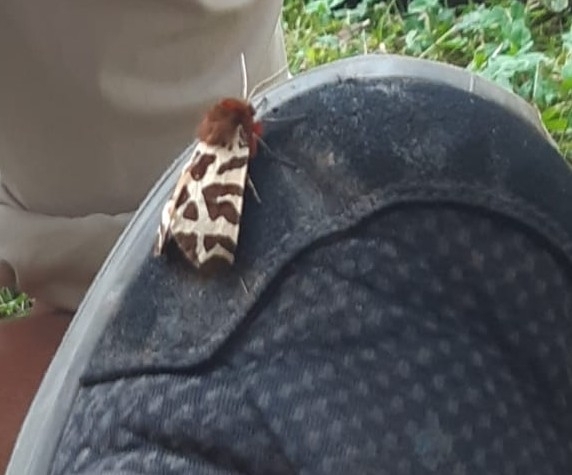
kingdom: Animalia
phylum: Arthropoda
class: Insecta
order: Lepidoptera
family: Erebidae
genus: Arctia
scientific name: Arctia caja
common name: Garden tiger
